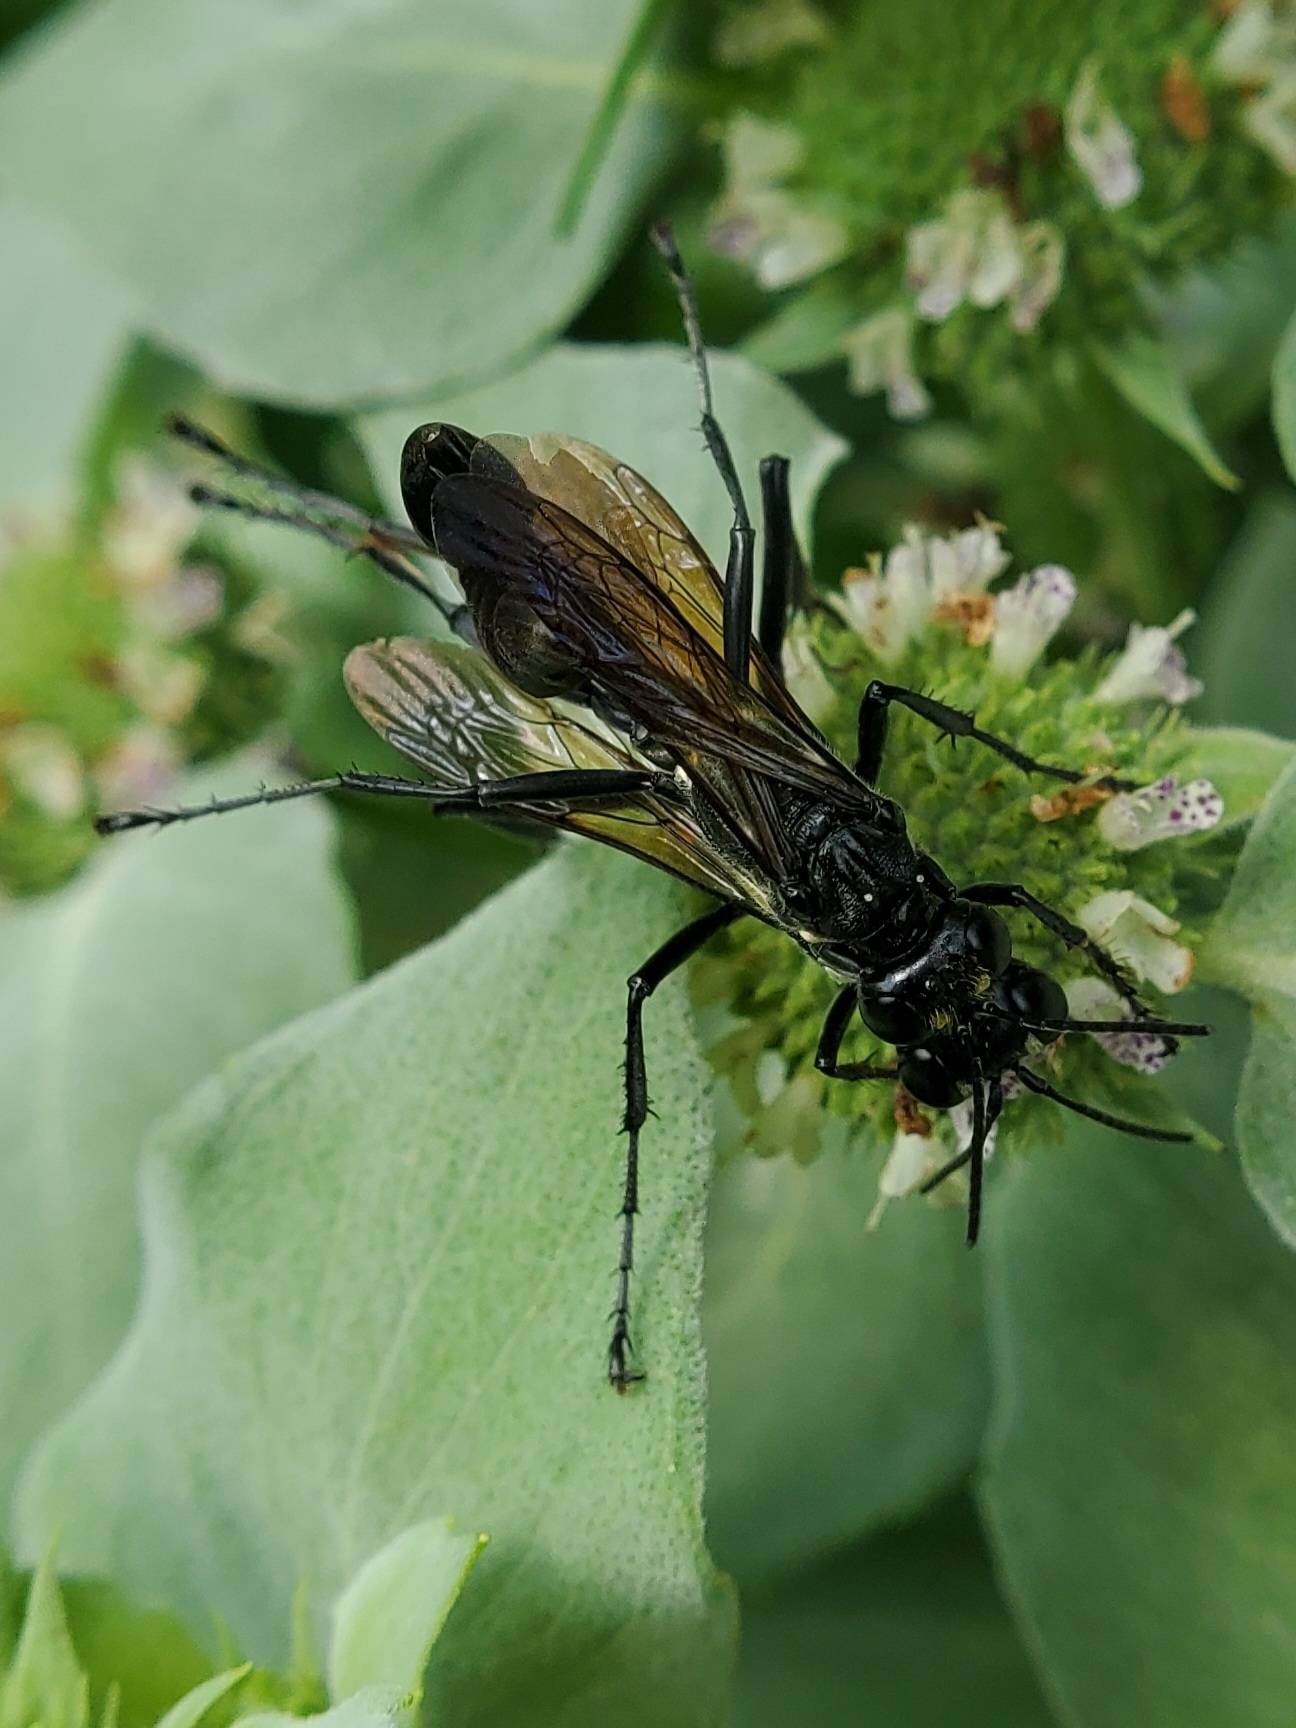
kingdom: Animalia
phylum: Arthropoda
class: Insecta
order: Hymenoptera
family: Sphecidae
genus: Eremnophila
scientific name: Eremnophila aureonotata
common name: Gold-marked thread-waisted wasp
